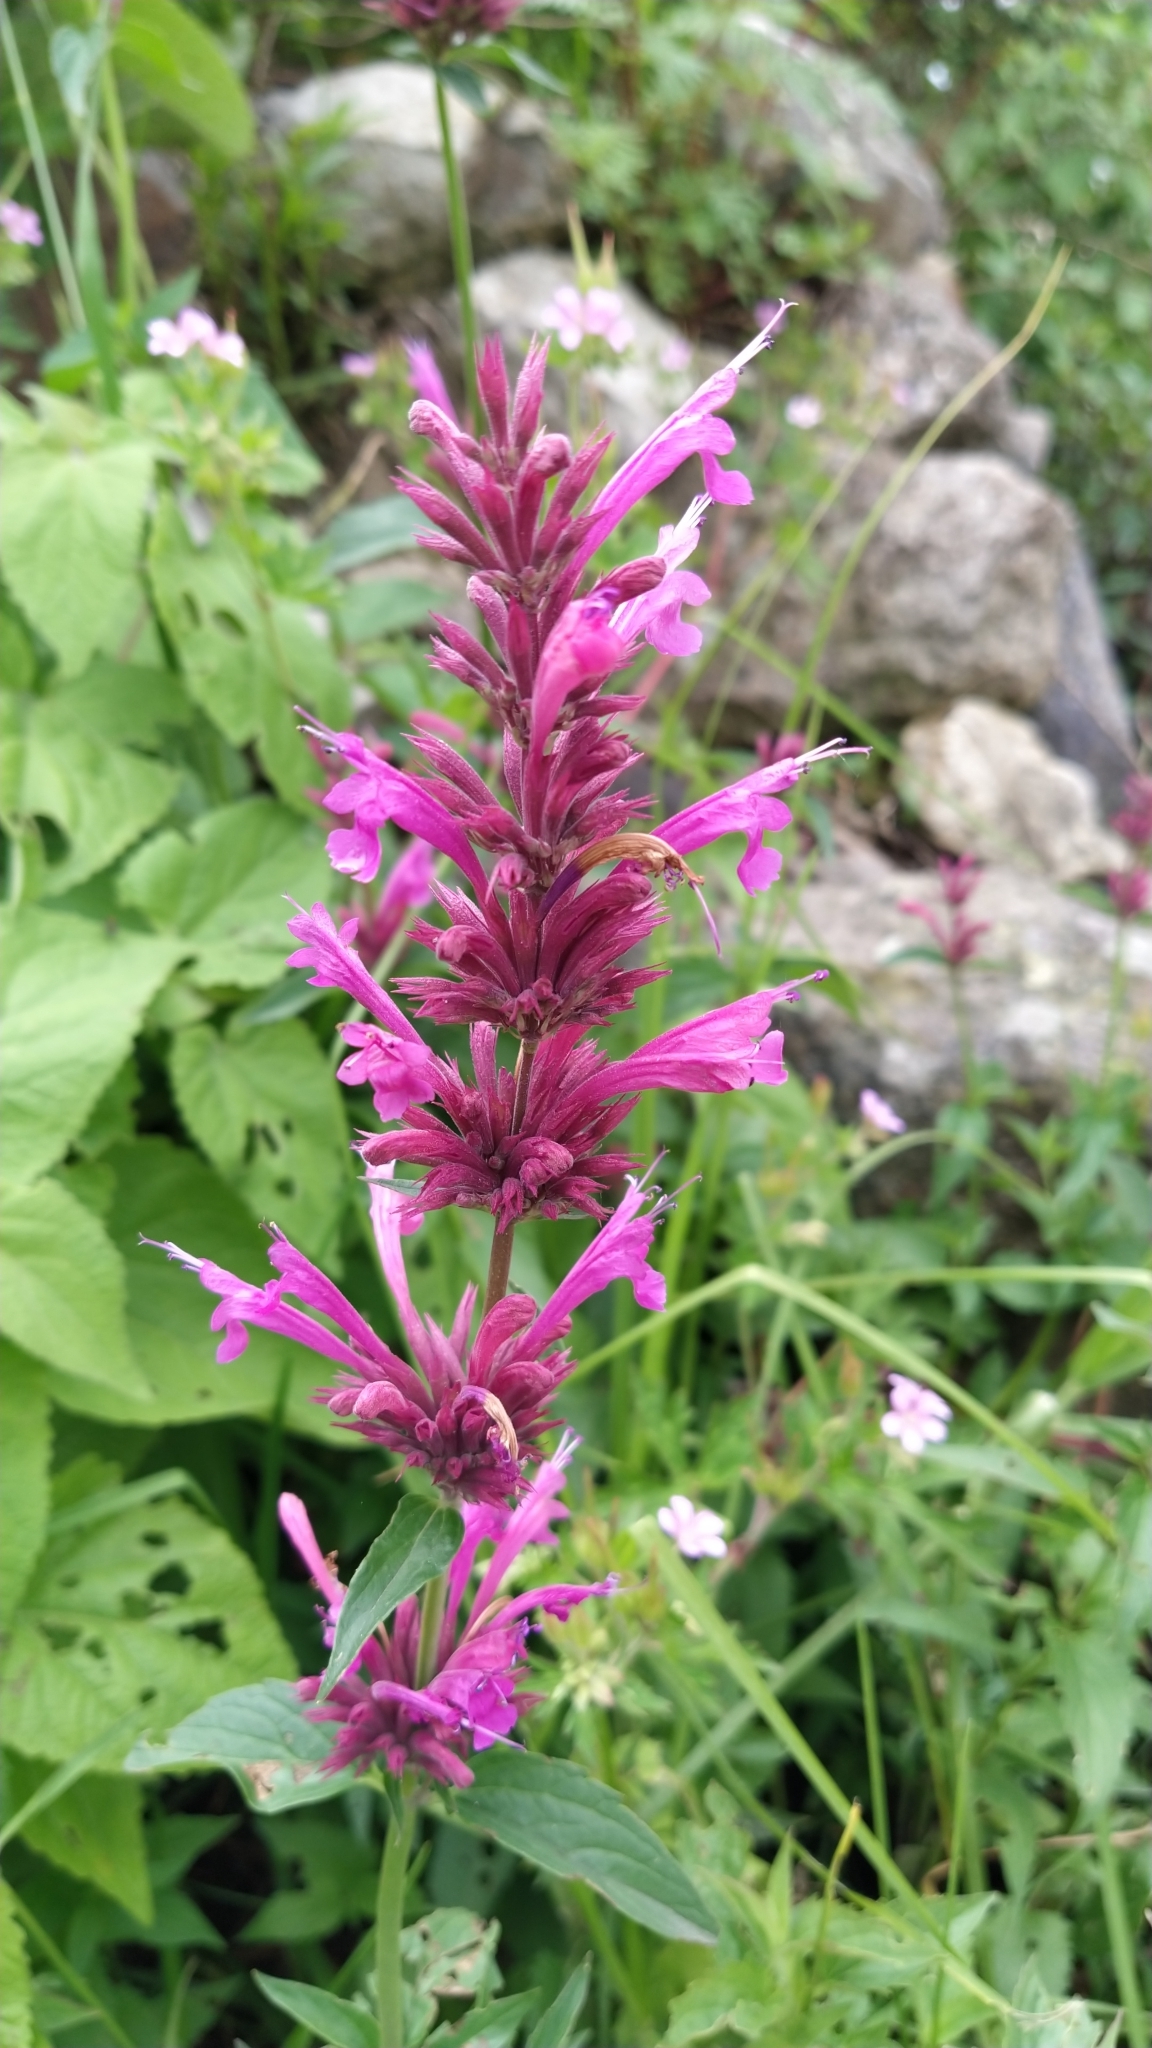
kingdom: Plantae
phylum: Tracheophyta
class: Magnoliopsida
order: Lamiales
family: Lamiaceae
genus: Agastache
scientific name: Agastache mexicana
